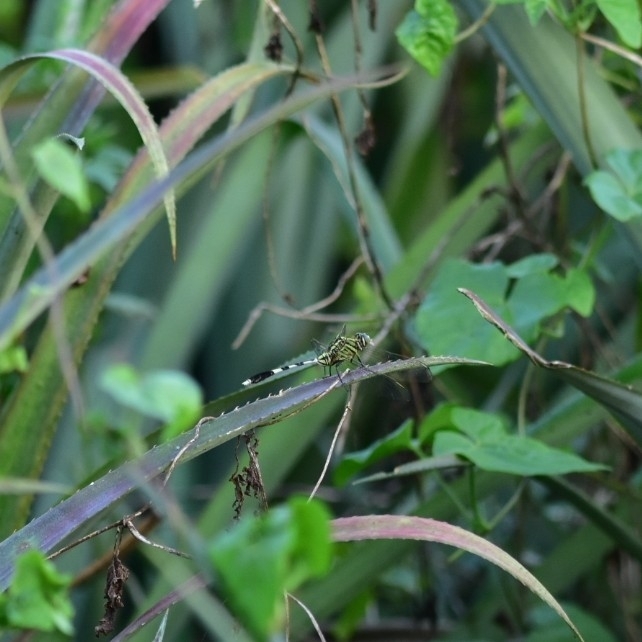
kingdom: Animalia
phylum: Arthropoda
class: Insecta
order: Odonata
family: Libellulidae
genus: Orthetrum
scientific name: Orthetrum sabina
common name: Slender skimmer
